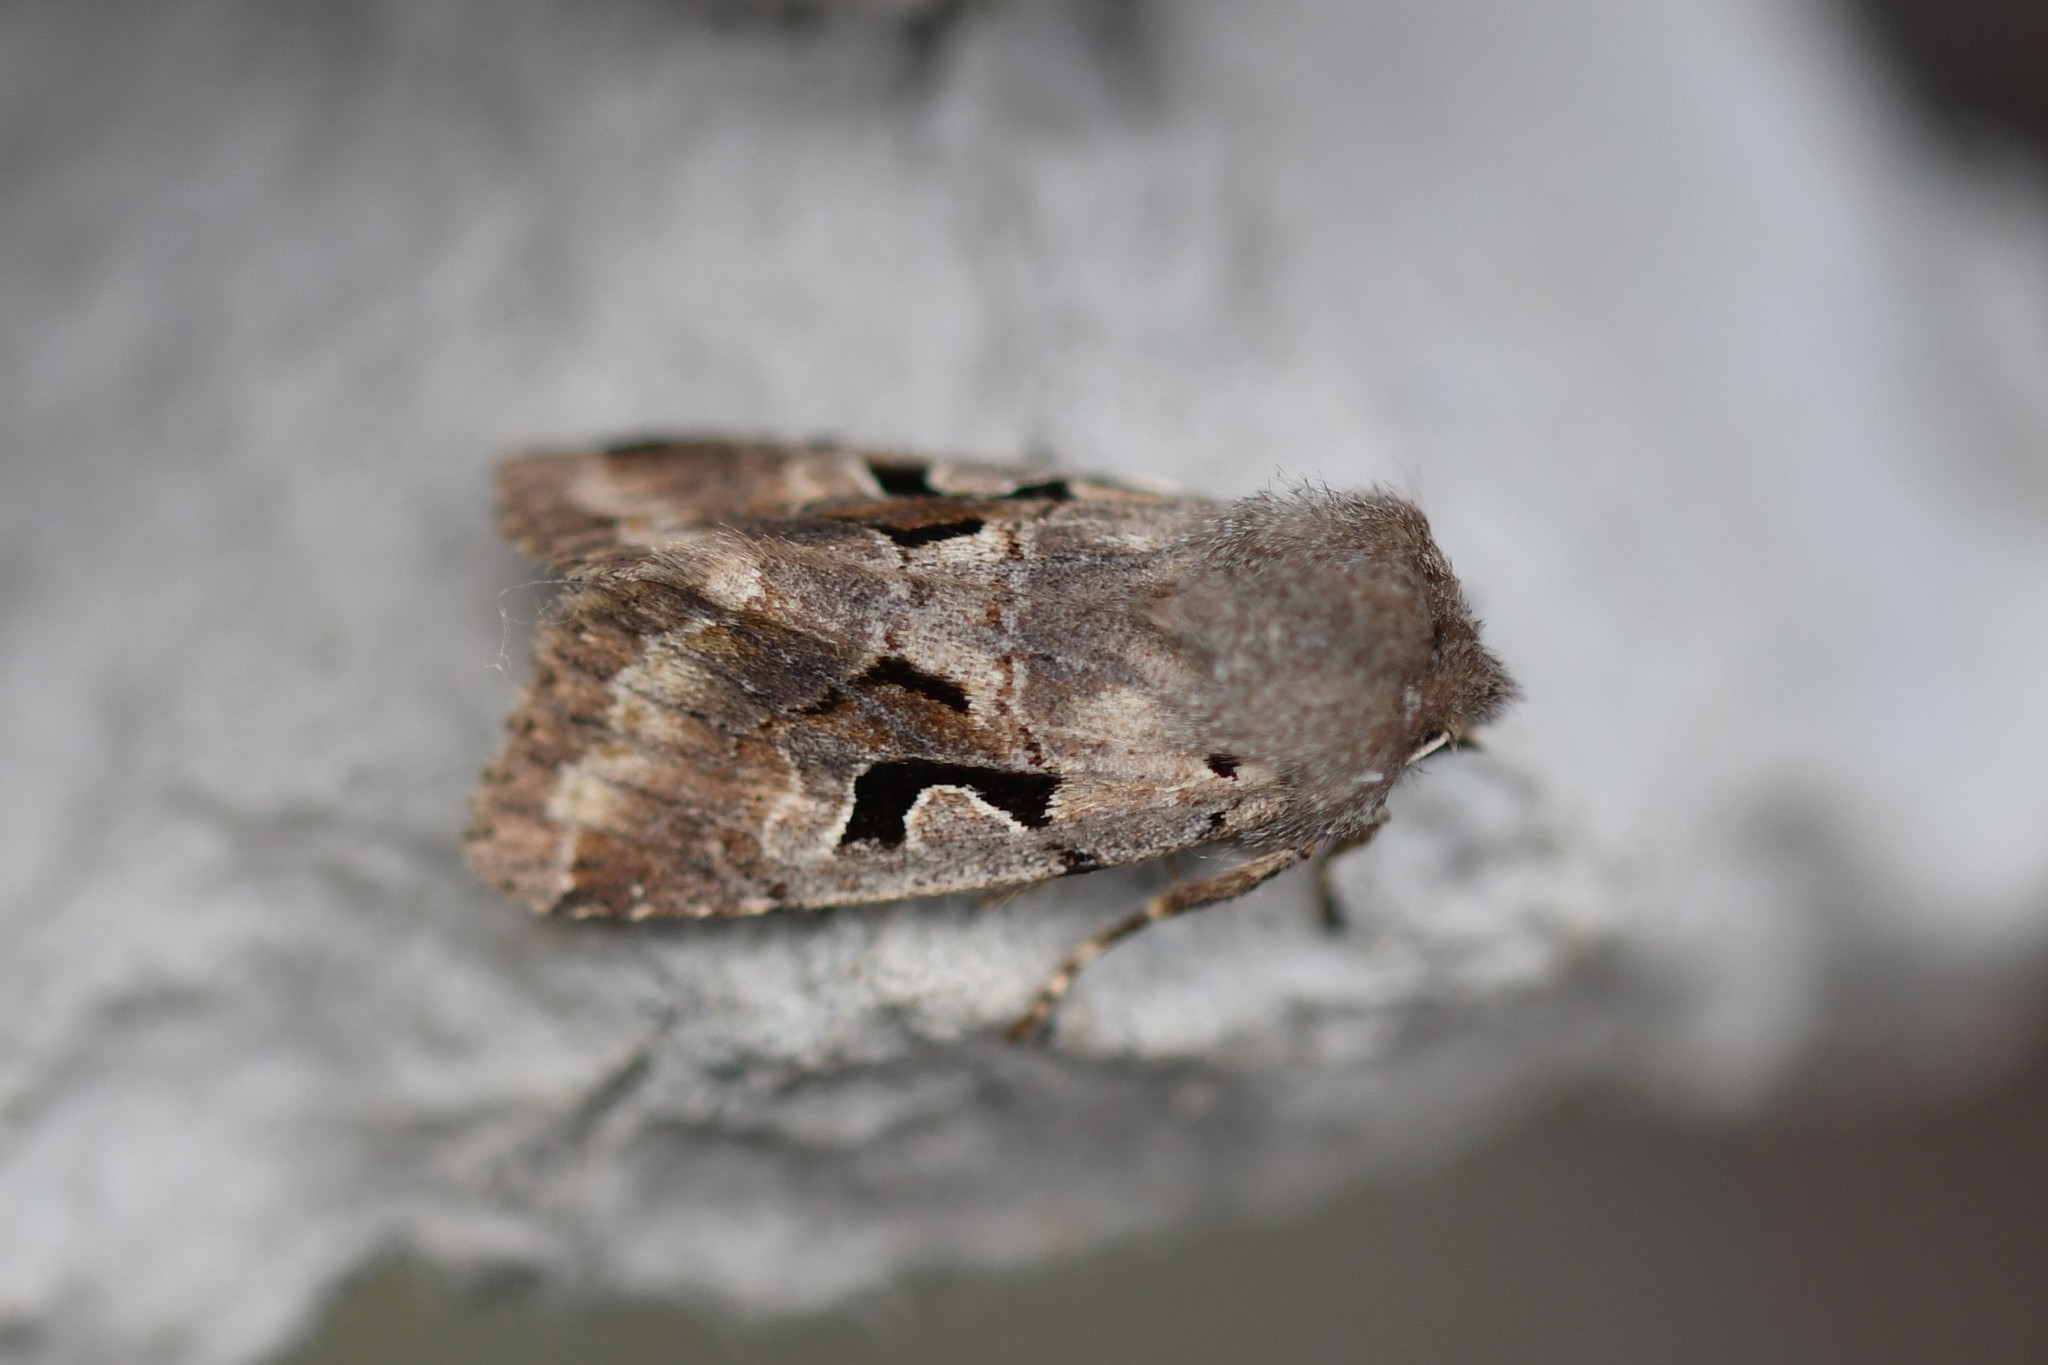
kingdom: Animalia
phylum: Arthropoda
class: Insecta
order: Lepidoptera
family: Noctuidae
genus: Orthosia
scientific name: Orthosia gothica
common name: Hebrew character
